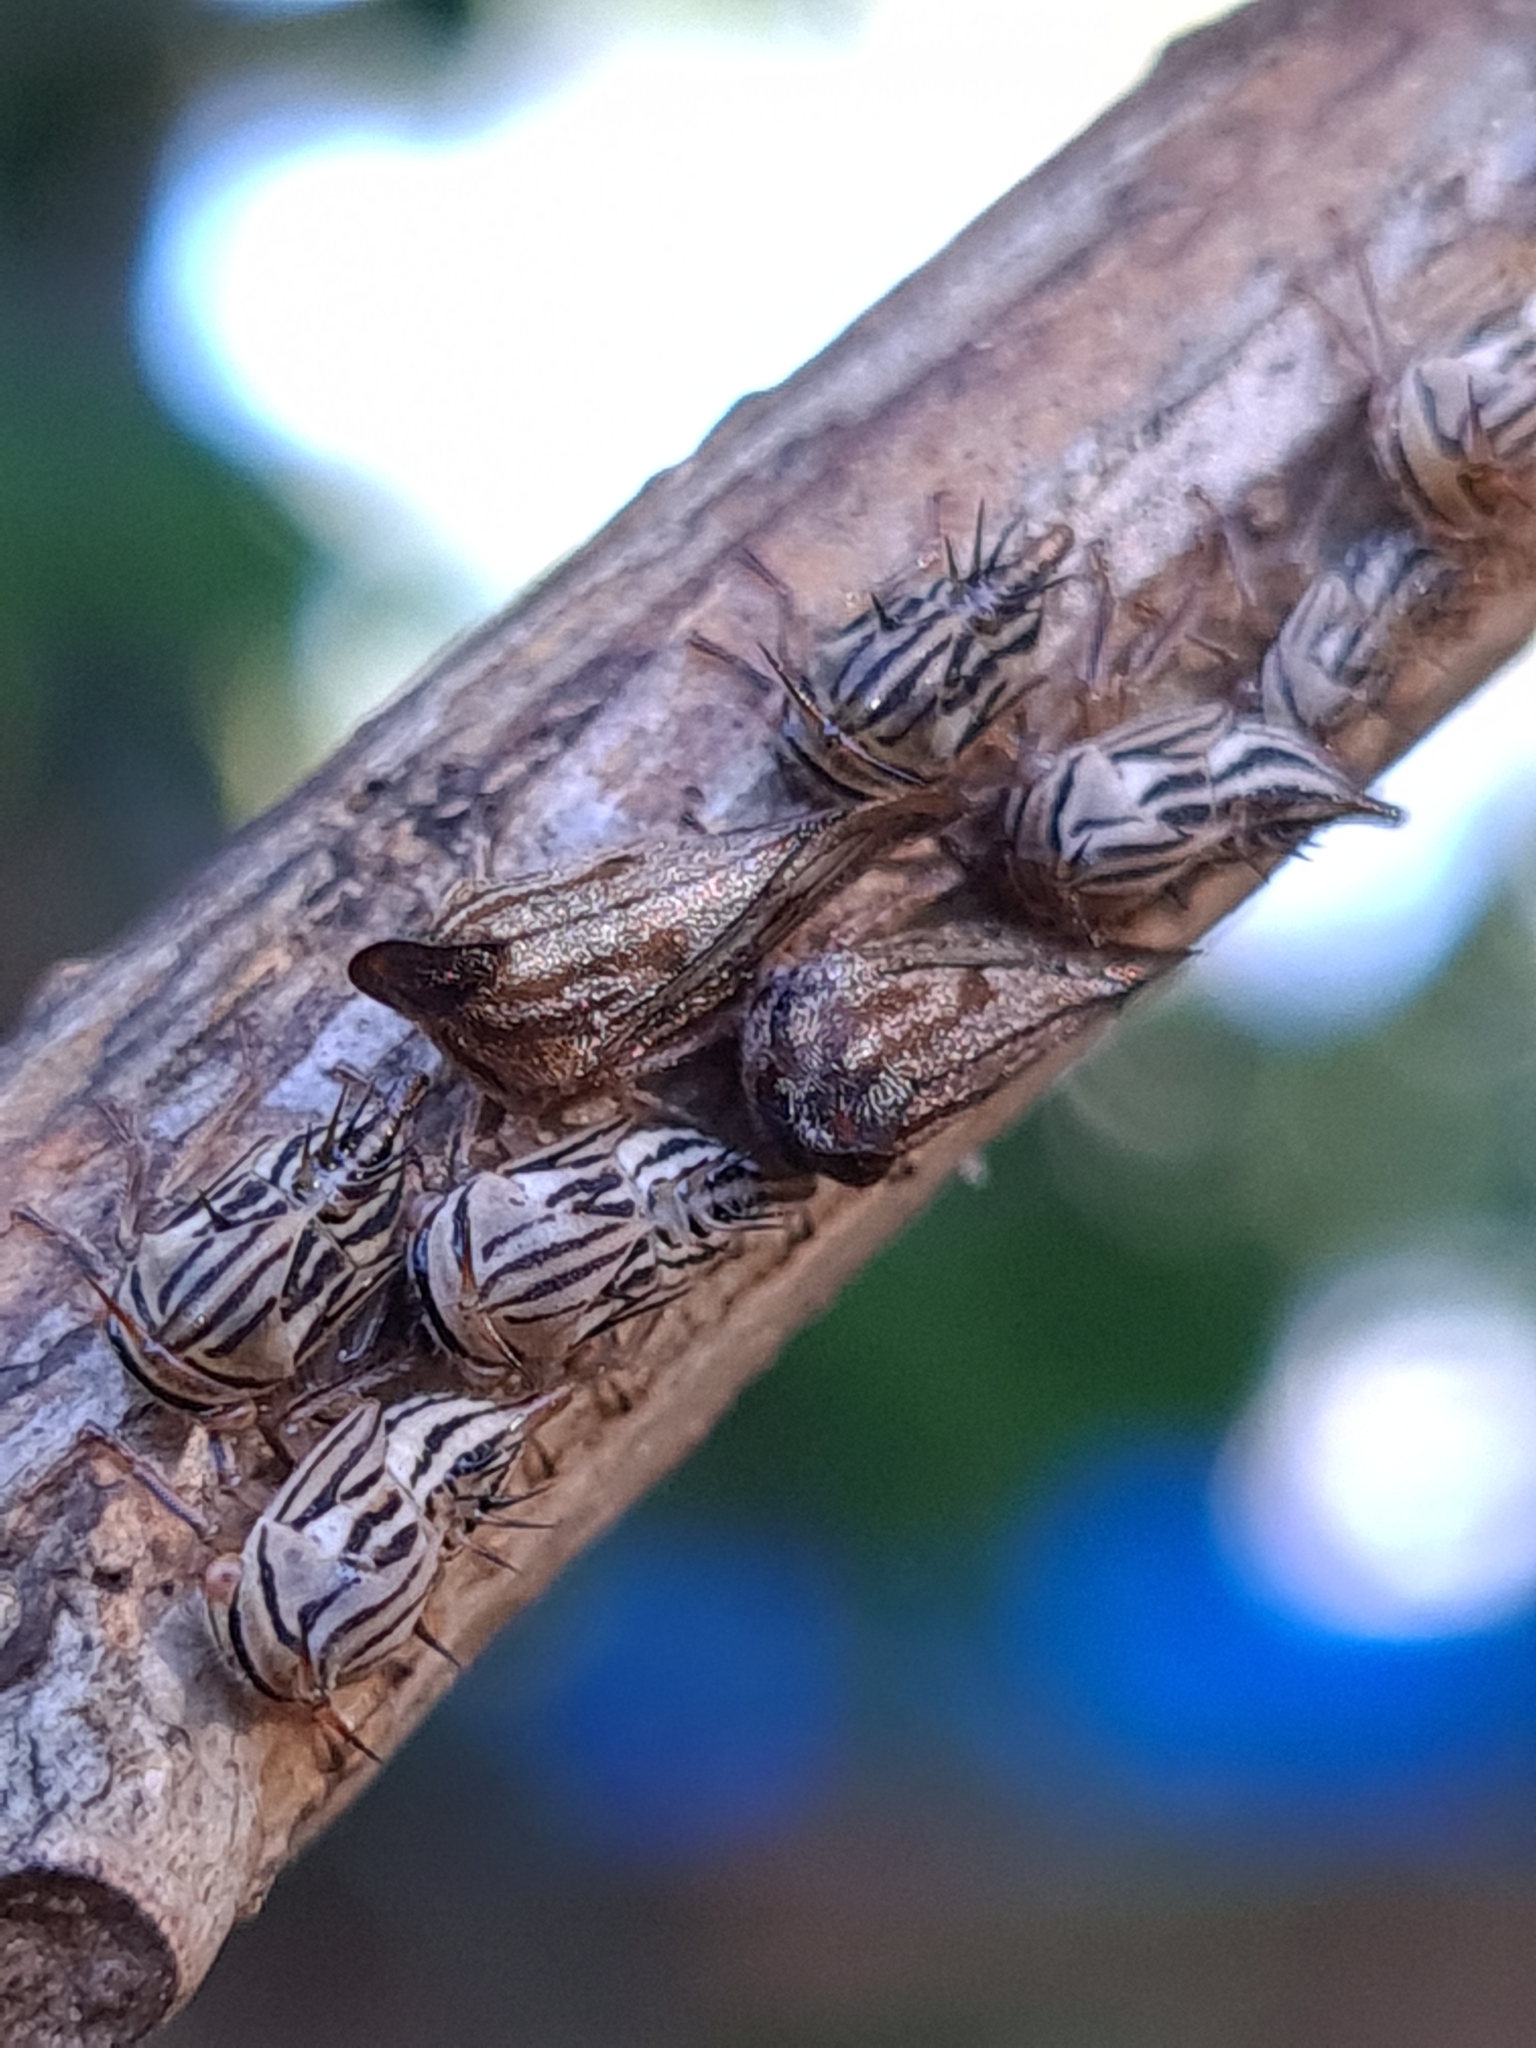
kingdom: Animalia
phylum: Arthropoda
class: Insecta
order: Hemiptera
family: Membracidae
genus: Aconophora
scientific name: Aconophora compressa
